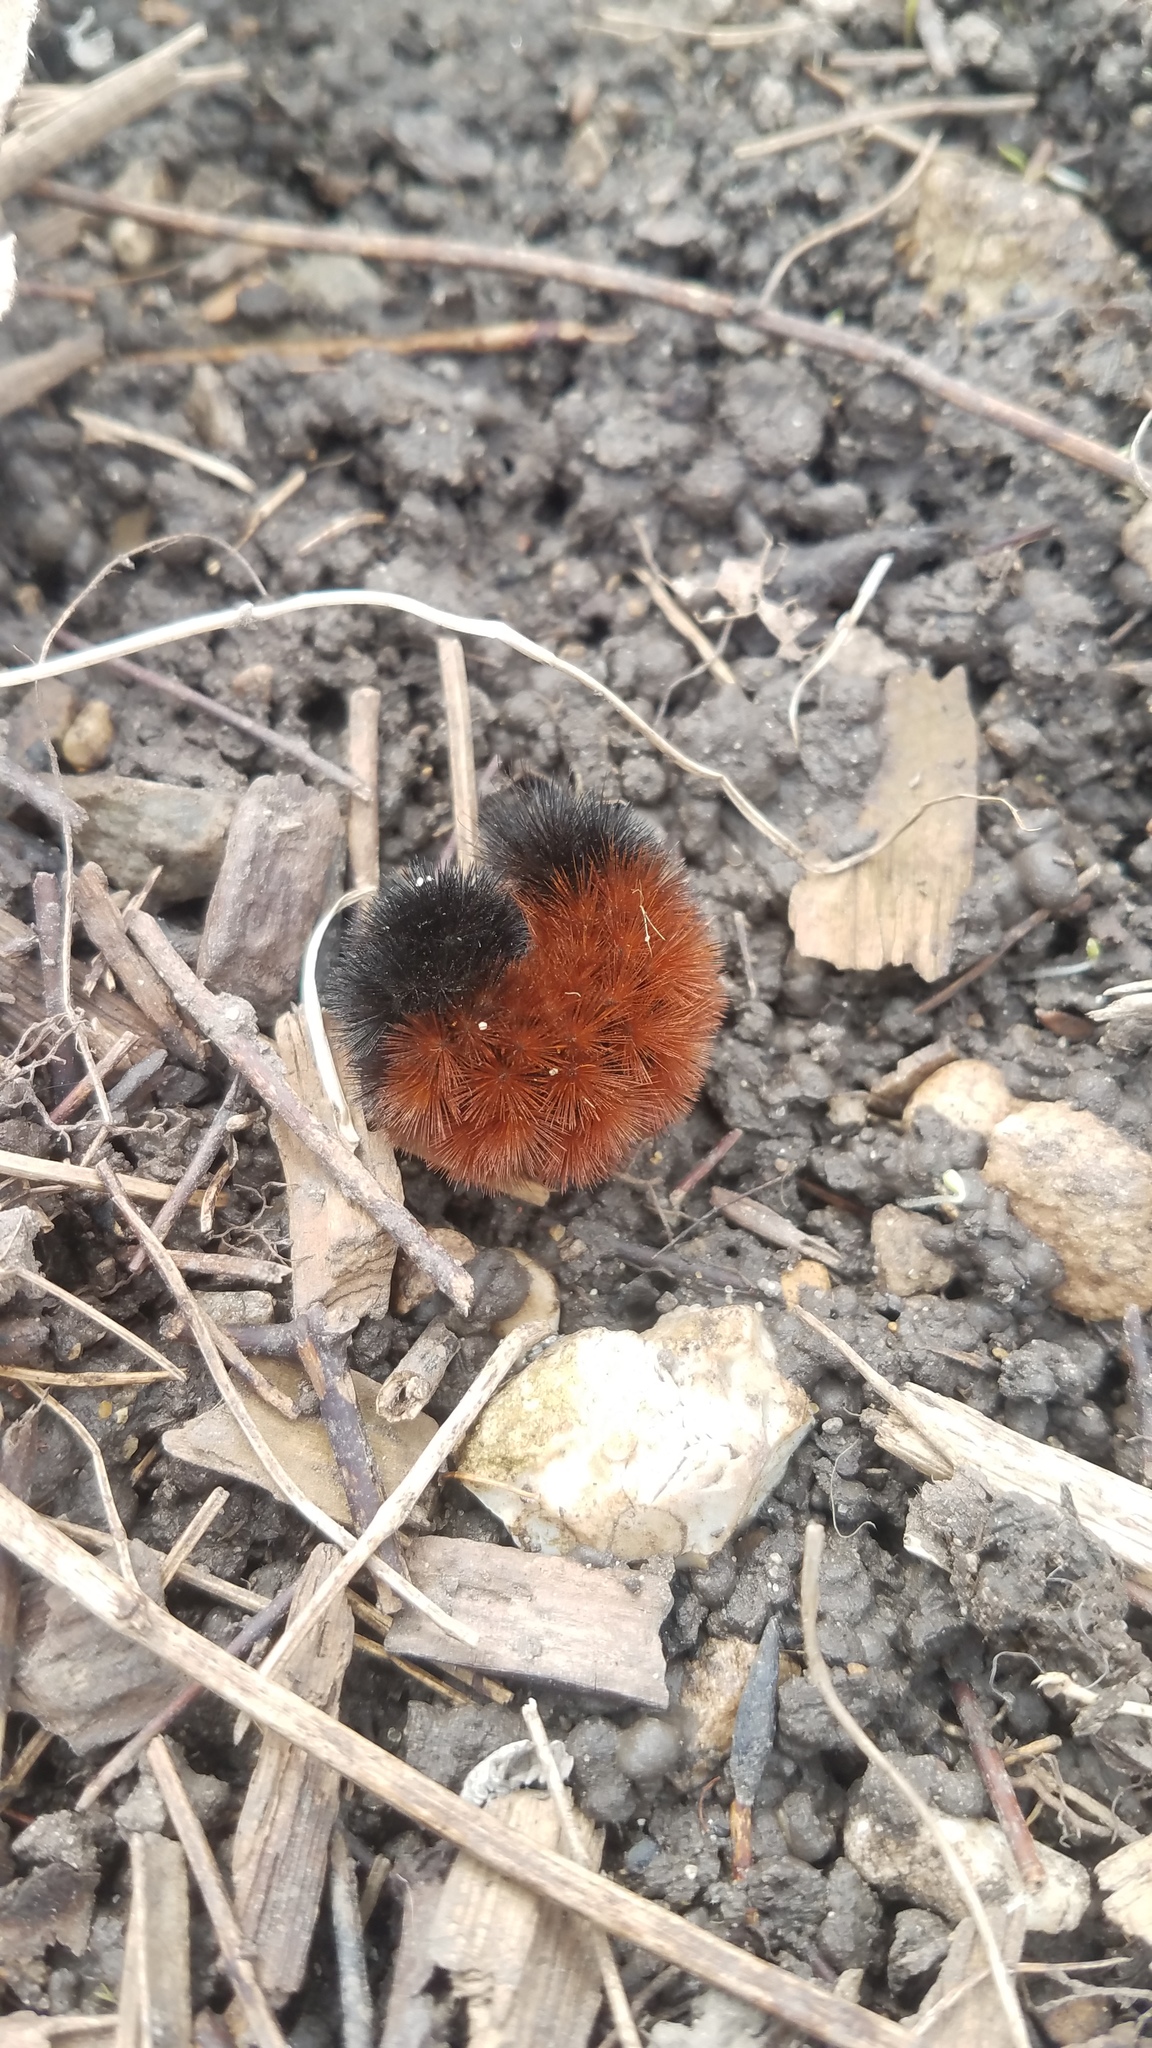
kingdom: Animalia
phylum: Arthropoda
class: Insecta
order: Lepidoptera
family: Erebidae
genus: Pyrrharctia
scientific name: Pyrrharctia isabella
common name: Isabella tiger moth
